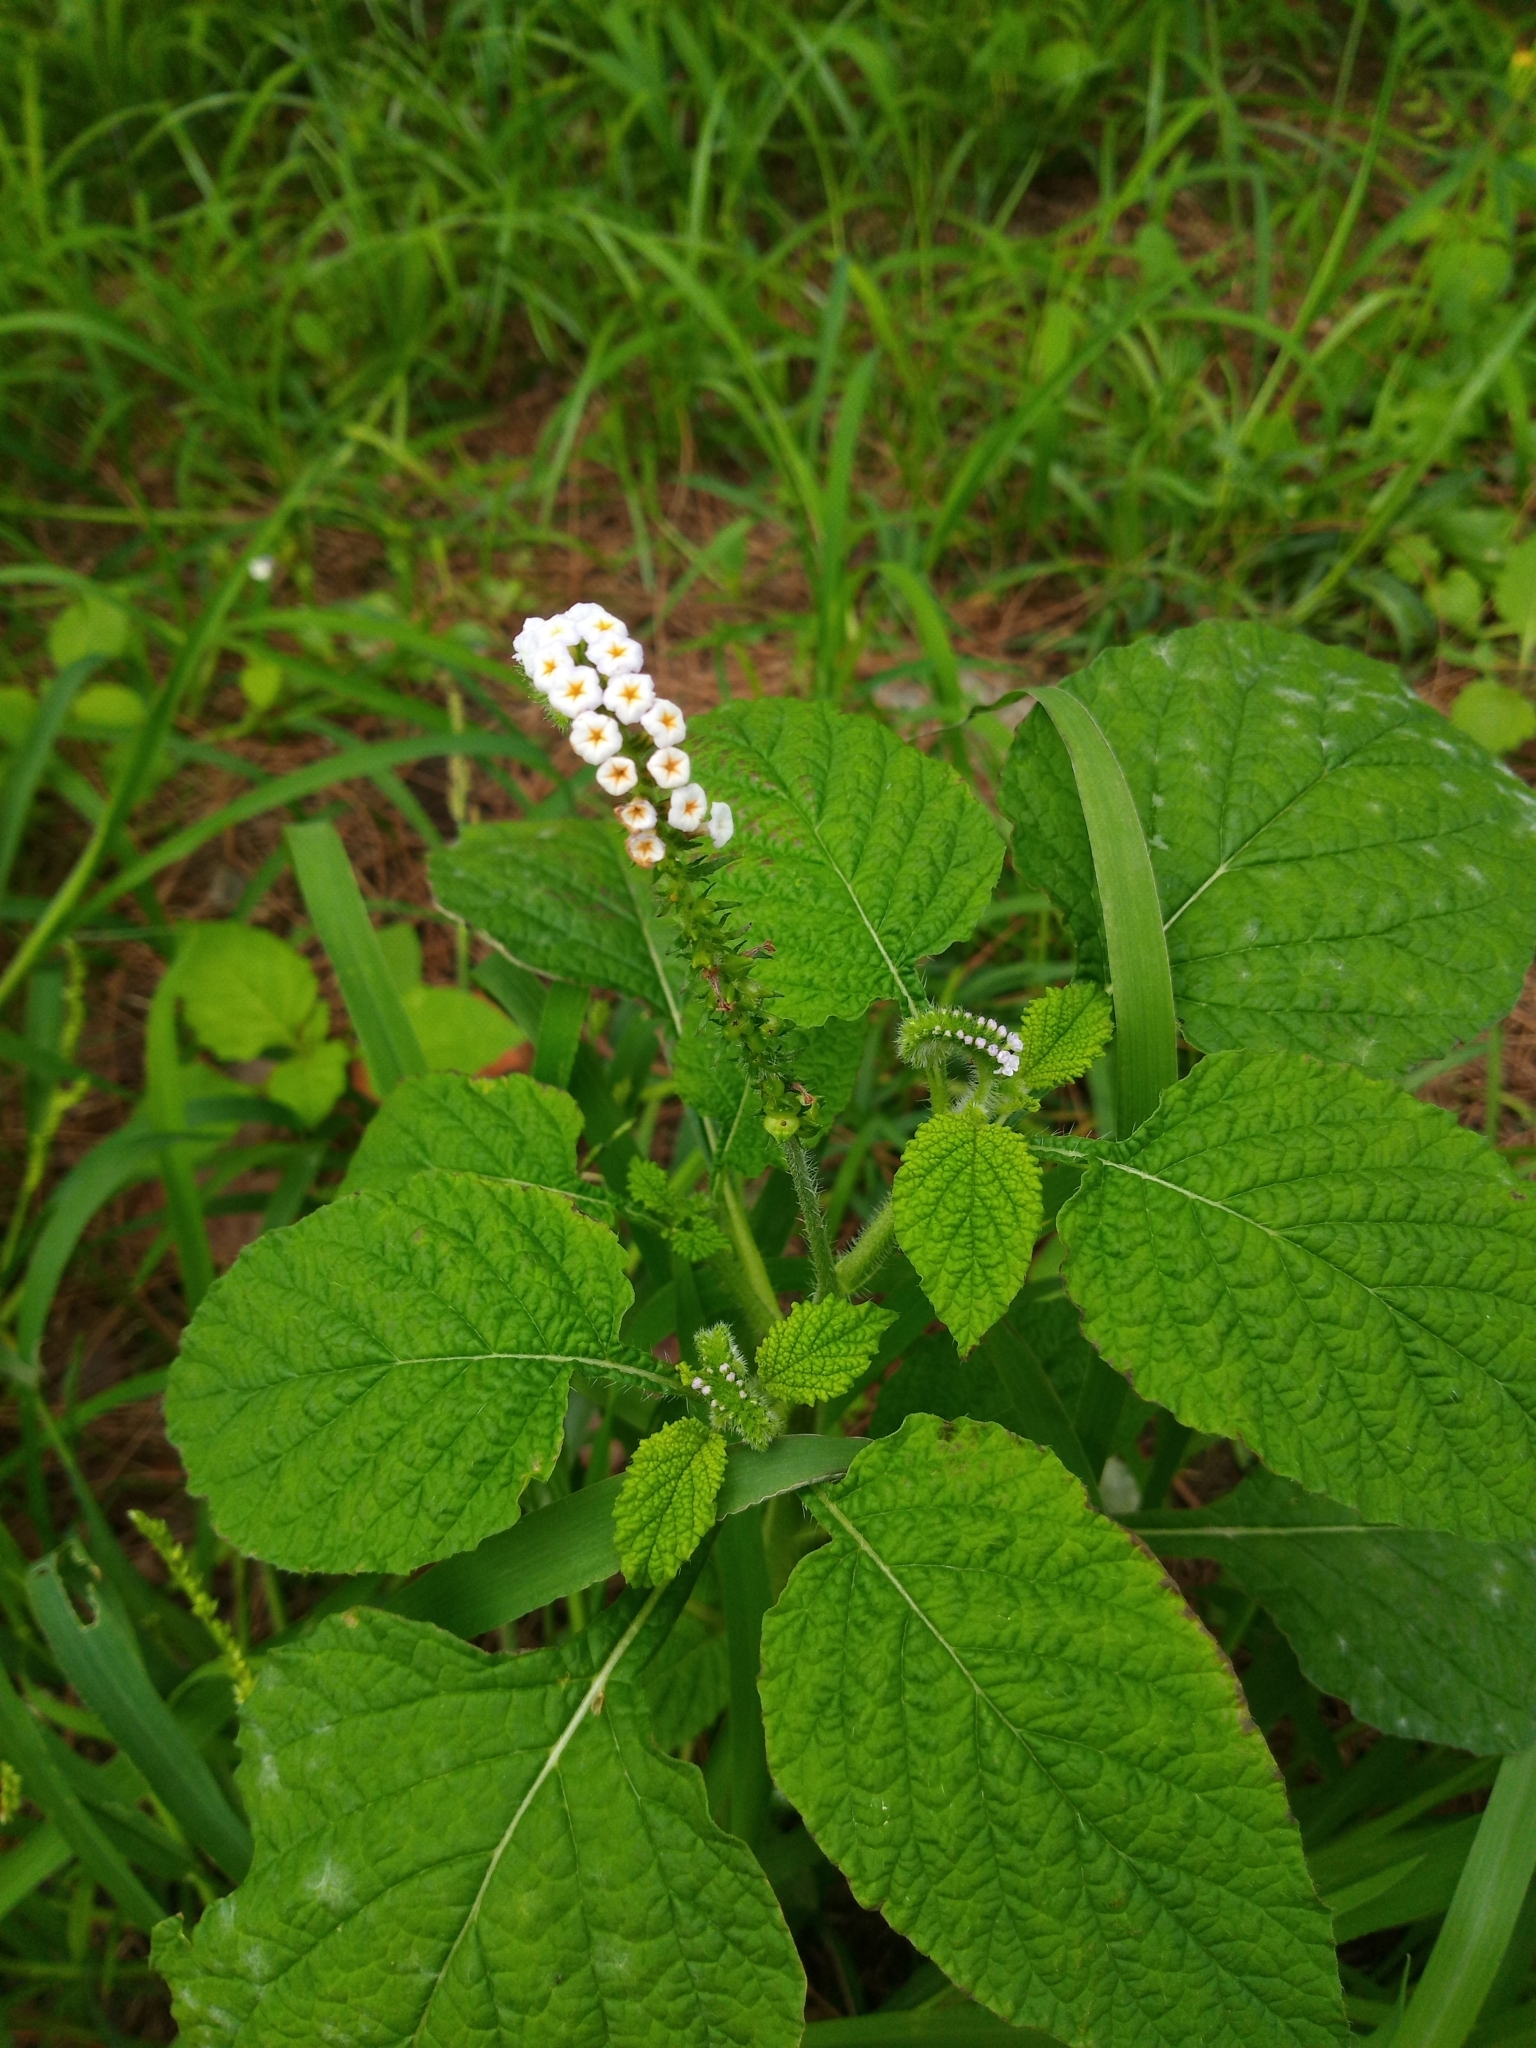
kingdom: Plantae
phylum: Tracheophyta
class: Magnoliopsida
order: Boraginales
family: Heliotropiaceae
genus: Heliotropium
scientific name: Heliotropium indicum
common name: Indian heliotrope
